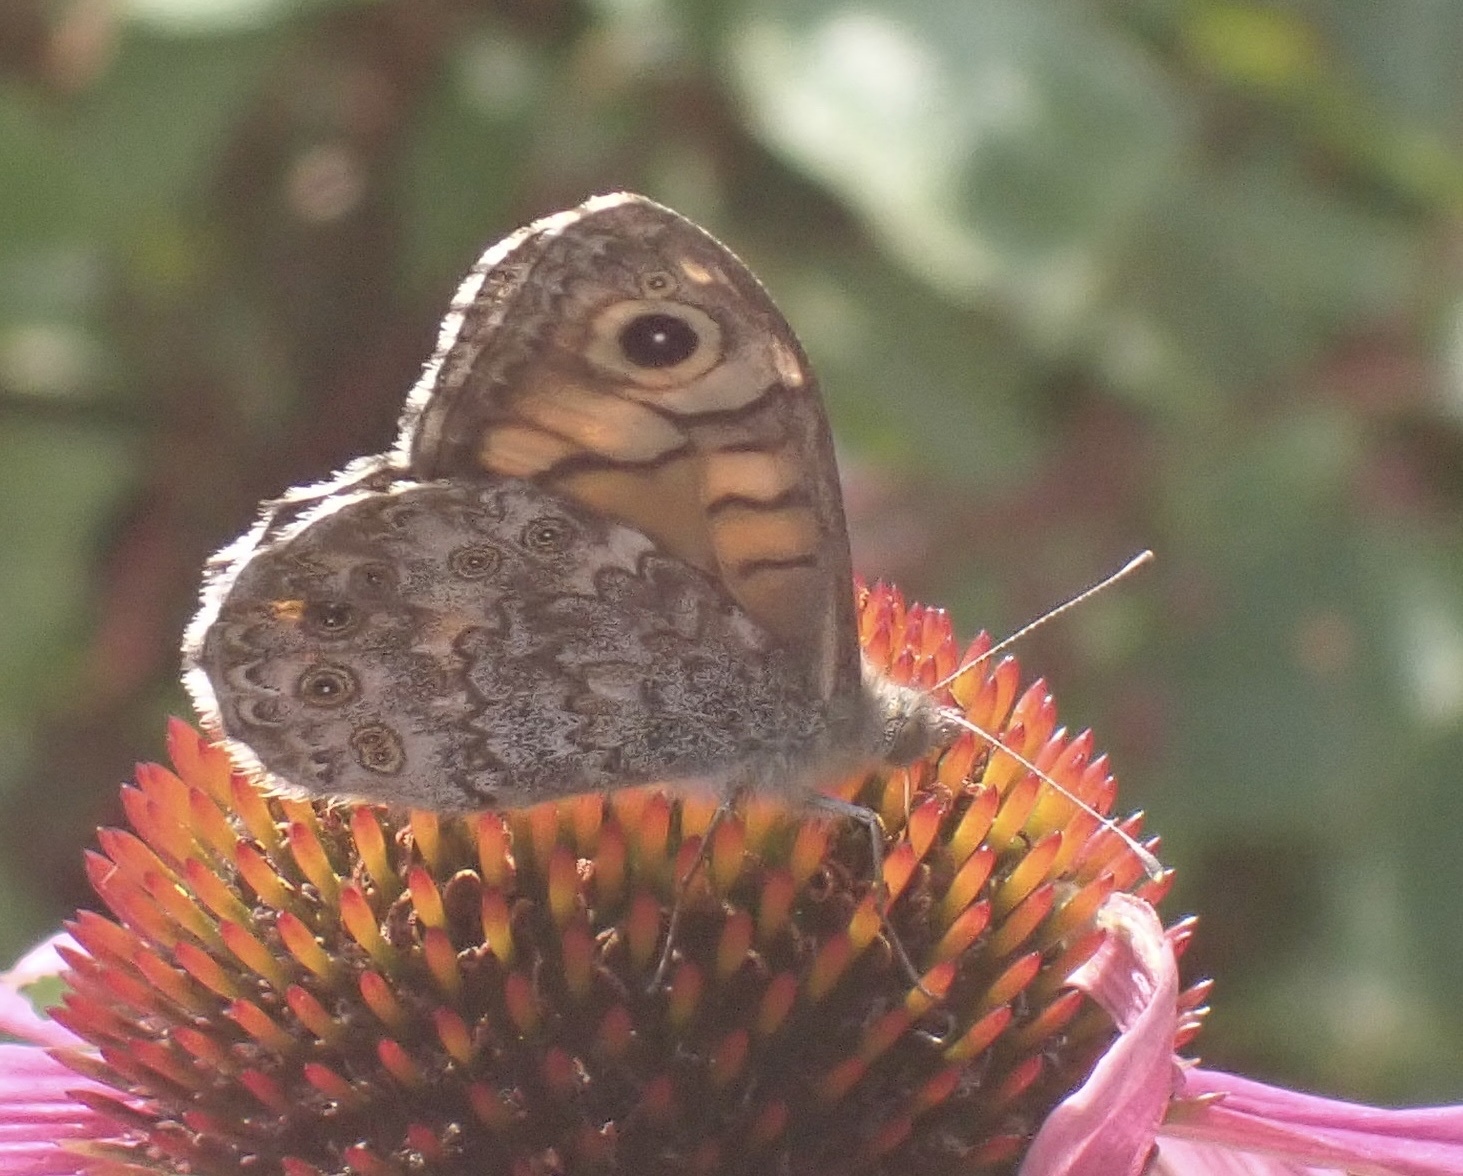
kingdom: Animalia
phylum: Arthropoda
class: Insecta
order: Lepidoptera
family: Nymphalidae
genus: Pararge
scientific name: Pararge Lasiommata megera
